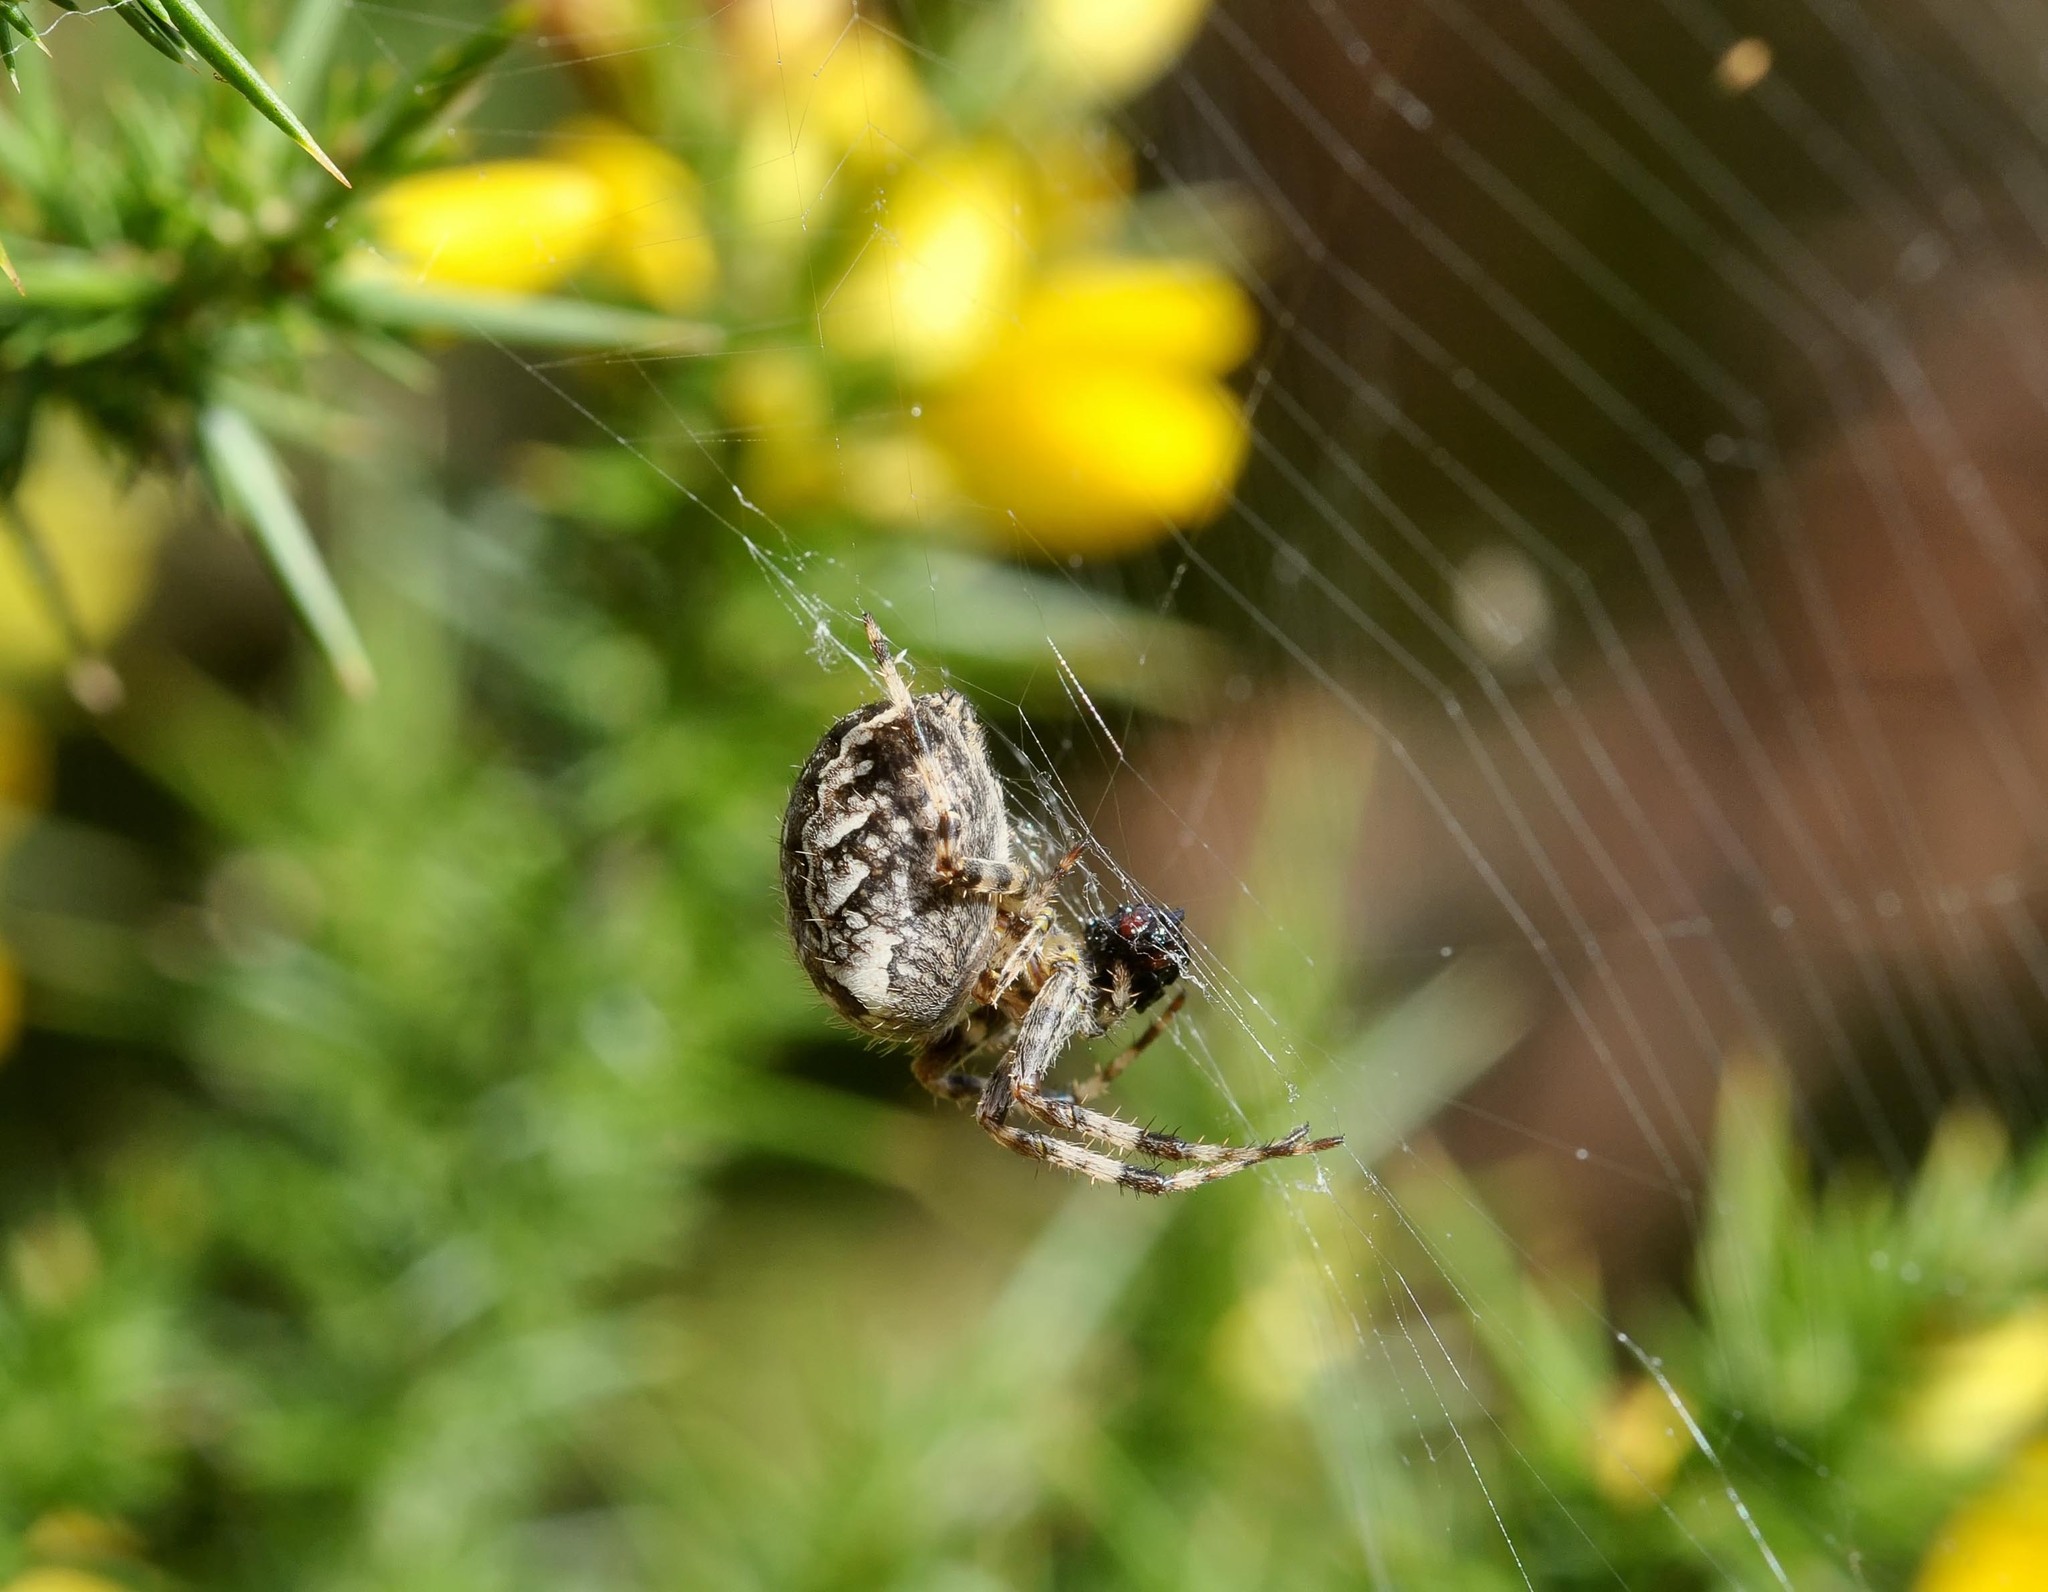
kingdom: Animalia
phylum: Arthropoda
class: Arachnida
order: Araneae
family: Araneidae
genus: Araneus
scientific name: Araneus diadematus
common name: Cross orbweaver
